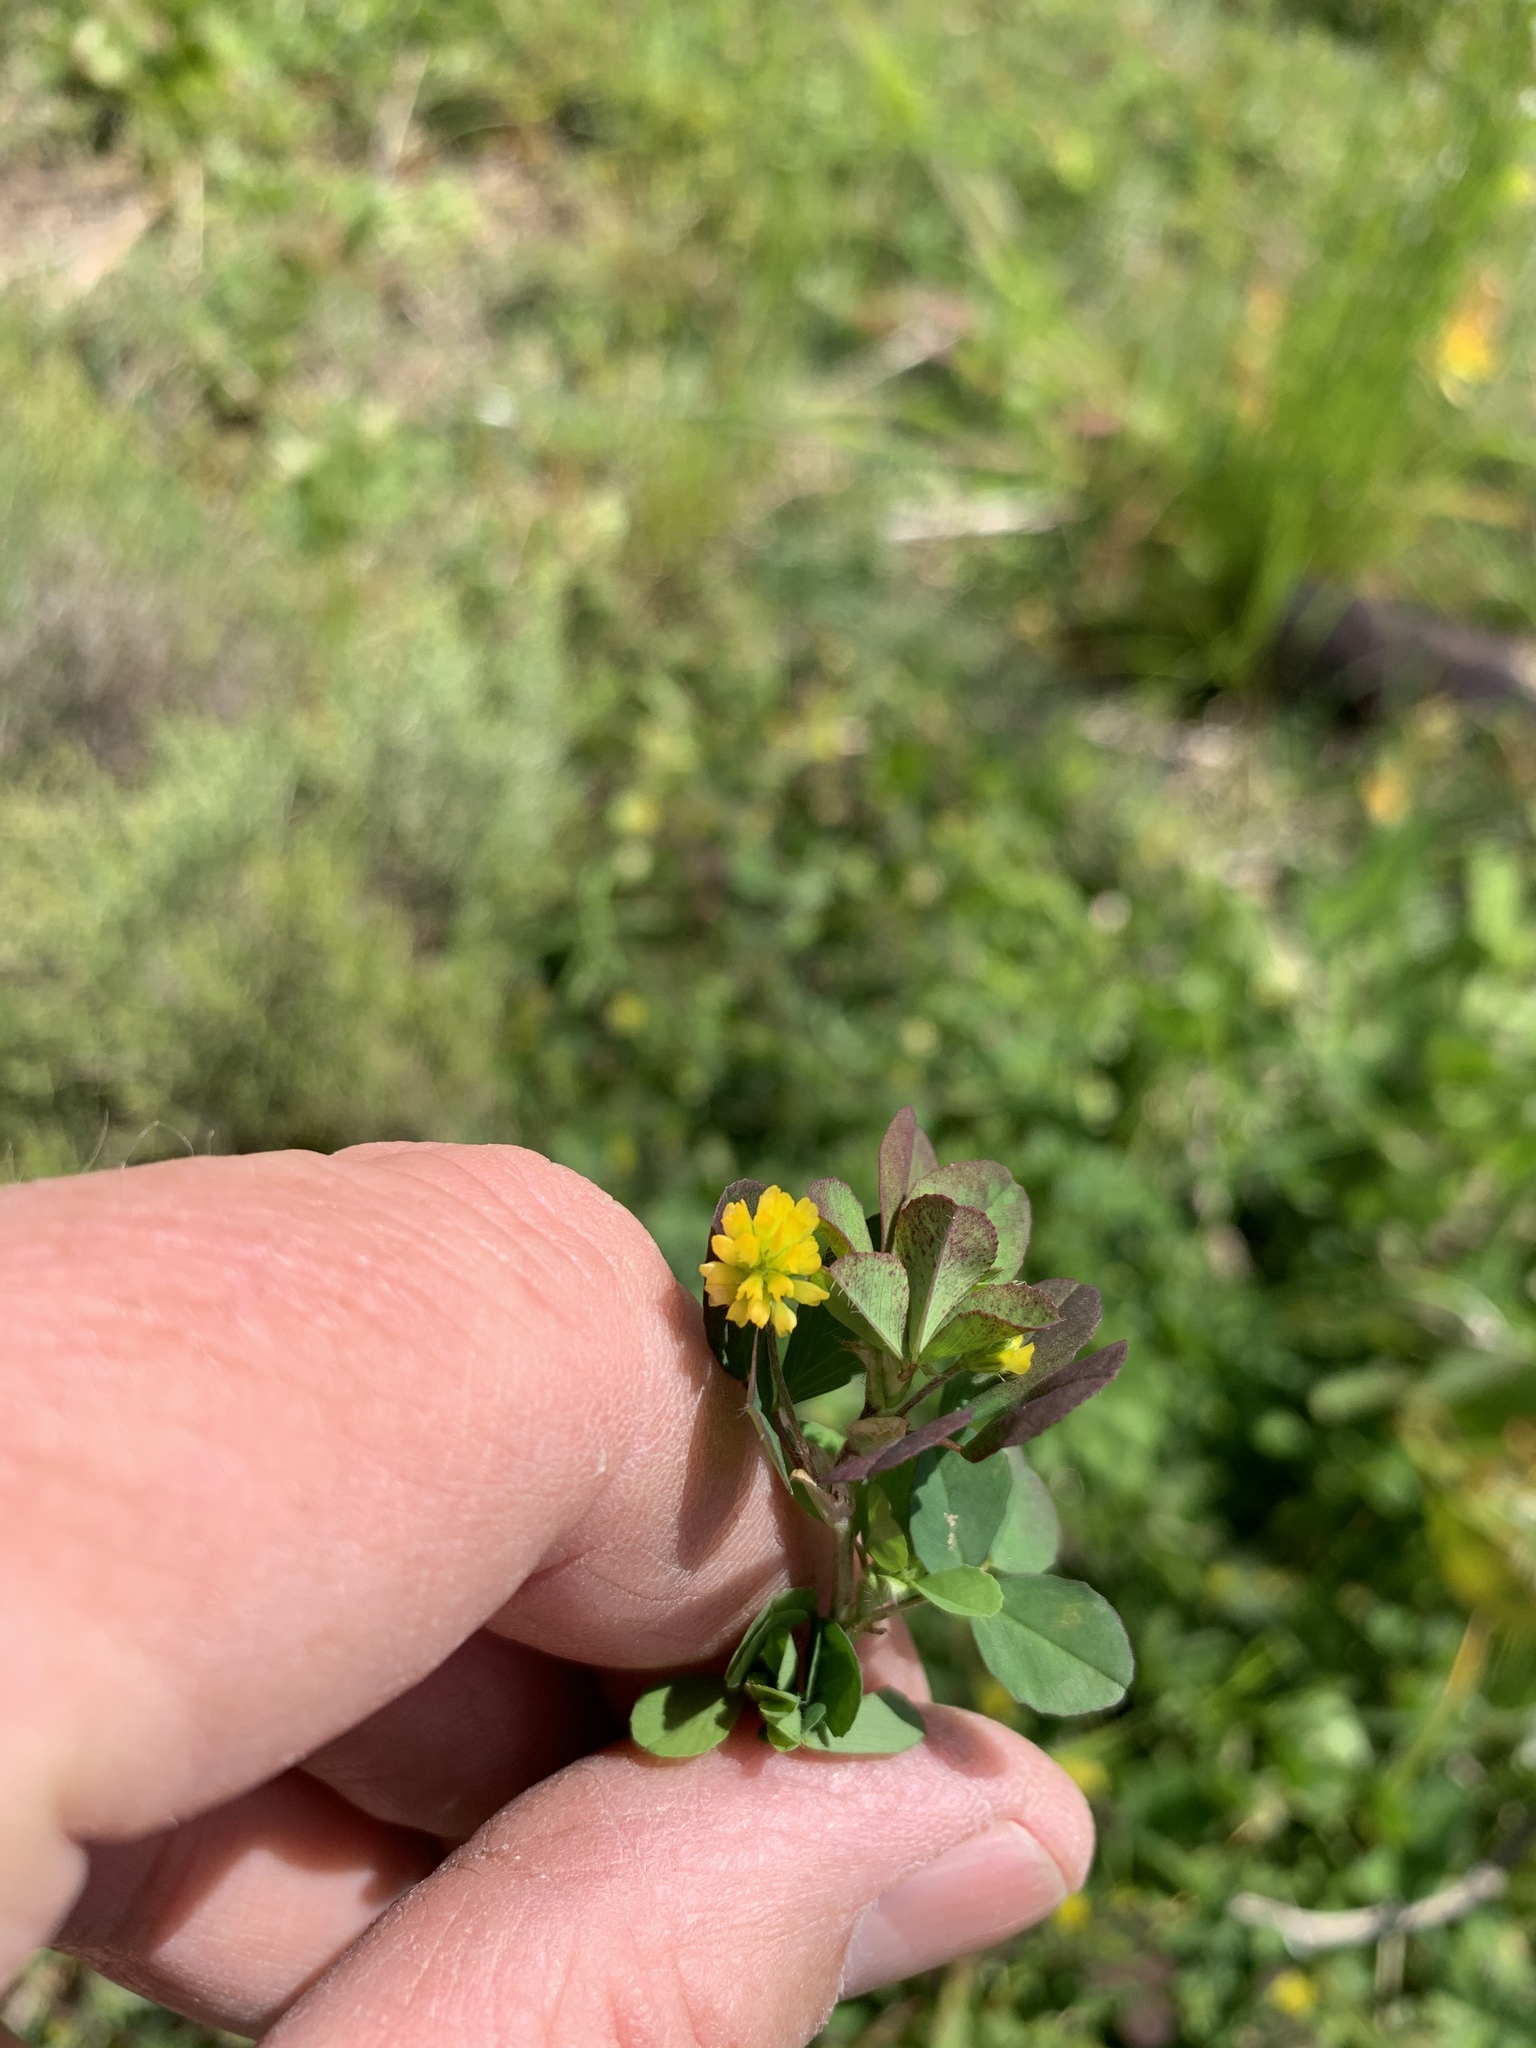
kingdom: Plantae
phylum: Tracheophyta
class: Magnoliopsida
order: Fabales
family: Fabaceae
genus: Trifolium
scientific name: Trifolium dubium
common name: Suckling clover
